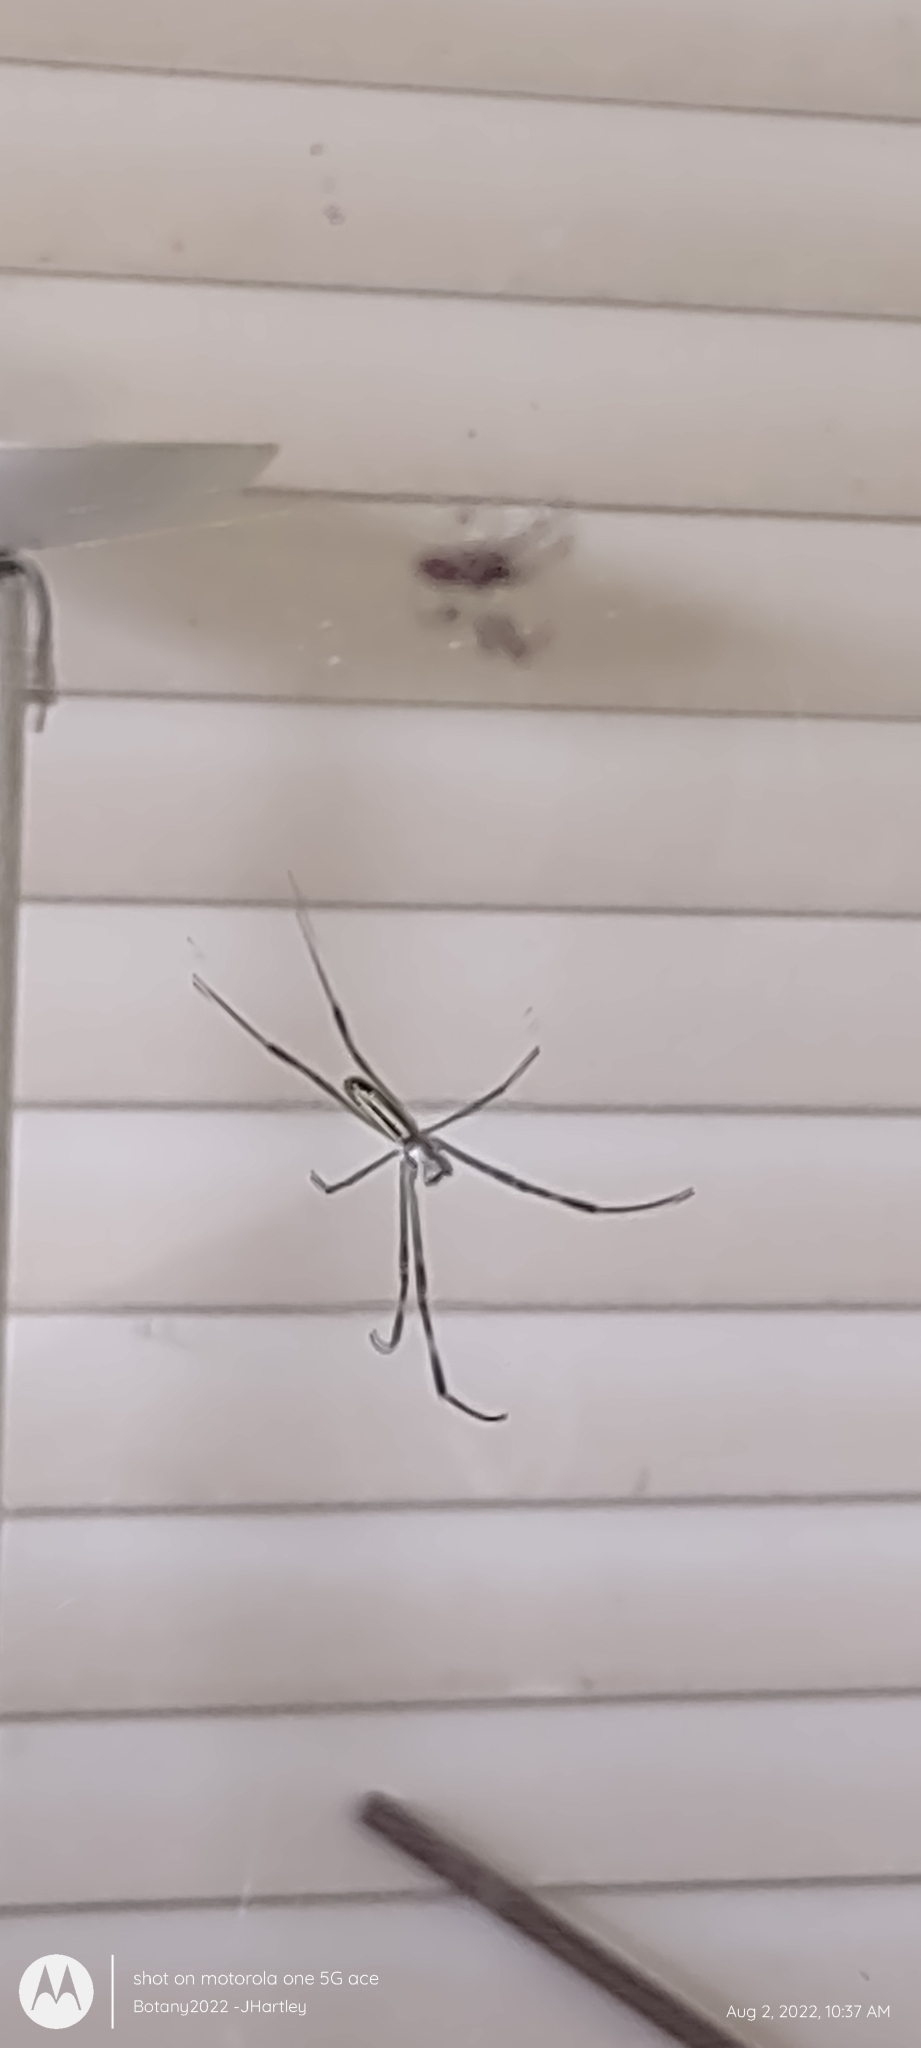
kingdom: Animalia
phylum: Arthropoda
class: Arachnida
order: Araneae
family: Araneidae
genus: Trichonephila
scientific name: Trichonephila clavata
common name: Jorō spider
